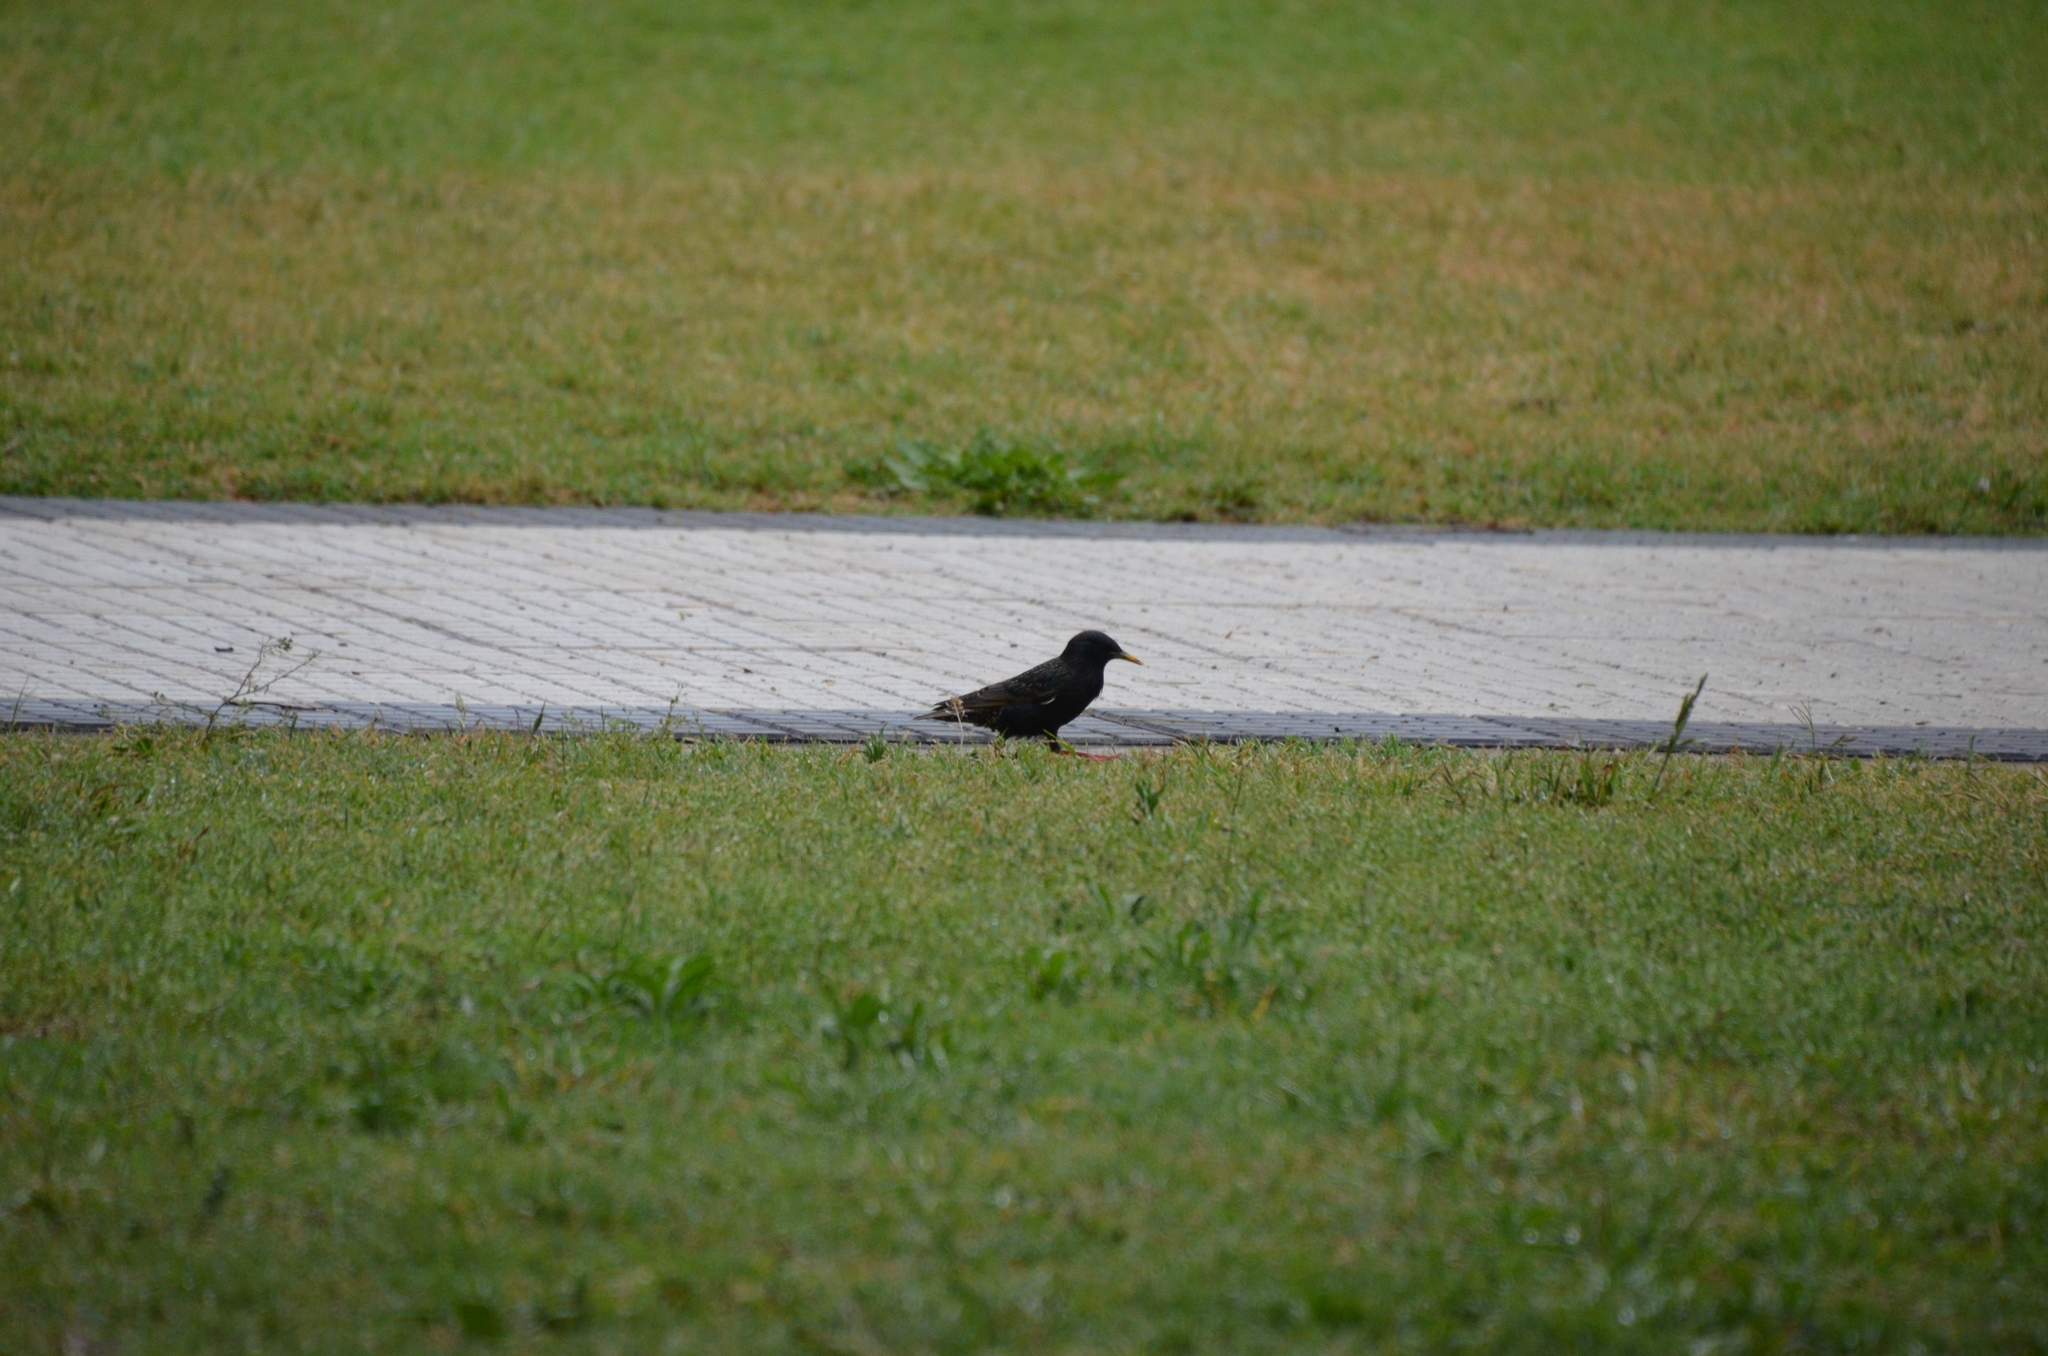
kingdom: Animalia
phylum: Chordata
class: Aves
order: Passeriformes
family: Sturnidae
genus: Sturnus
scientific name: Sturnus vulgaris
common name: Common starling
